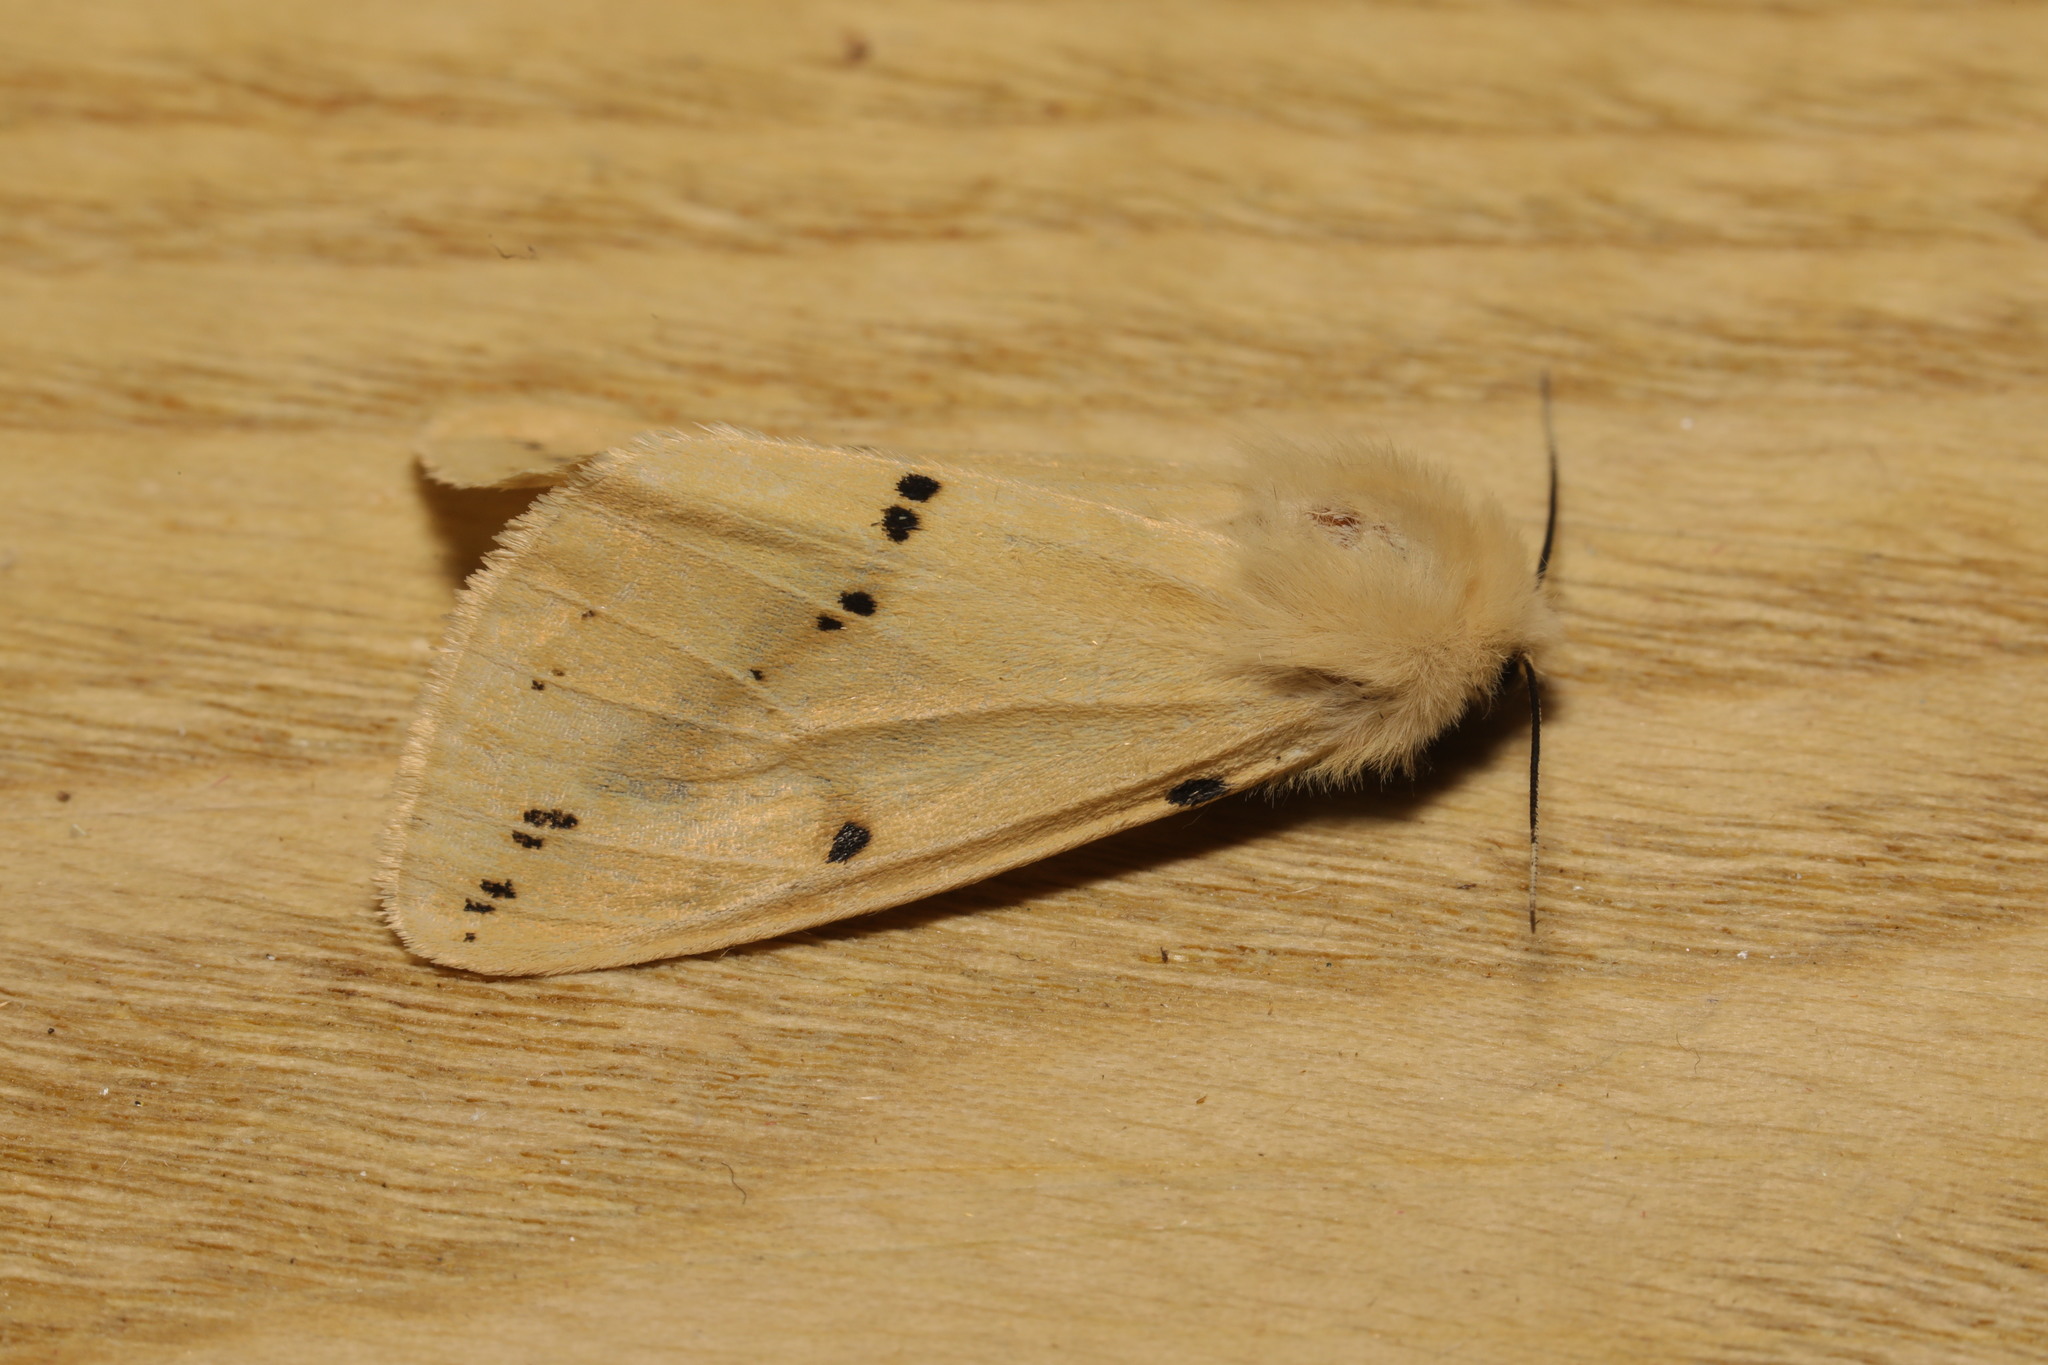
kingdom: Animalia
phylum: Arthropoda
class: Insecta
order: Lepidoptera
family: Erebidae
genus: Spilarctia
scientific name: Spilarctia lutea
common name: Buff ermine
